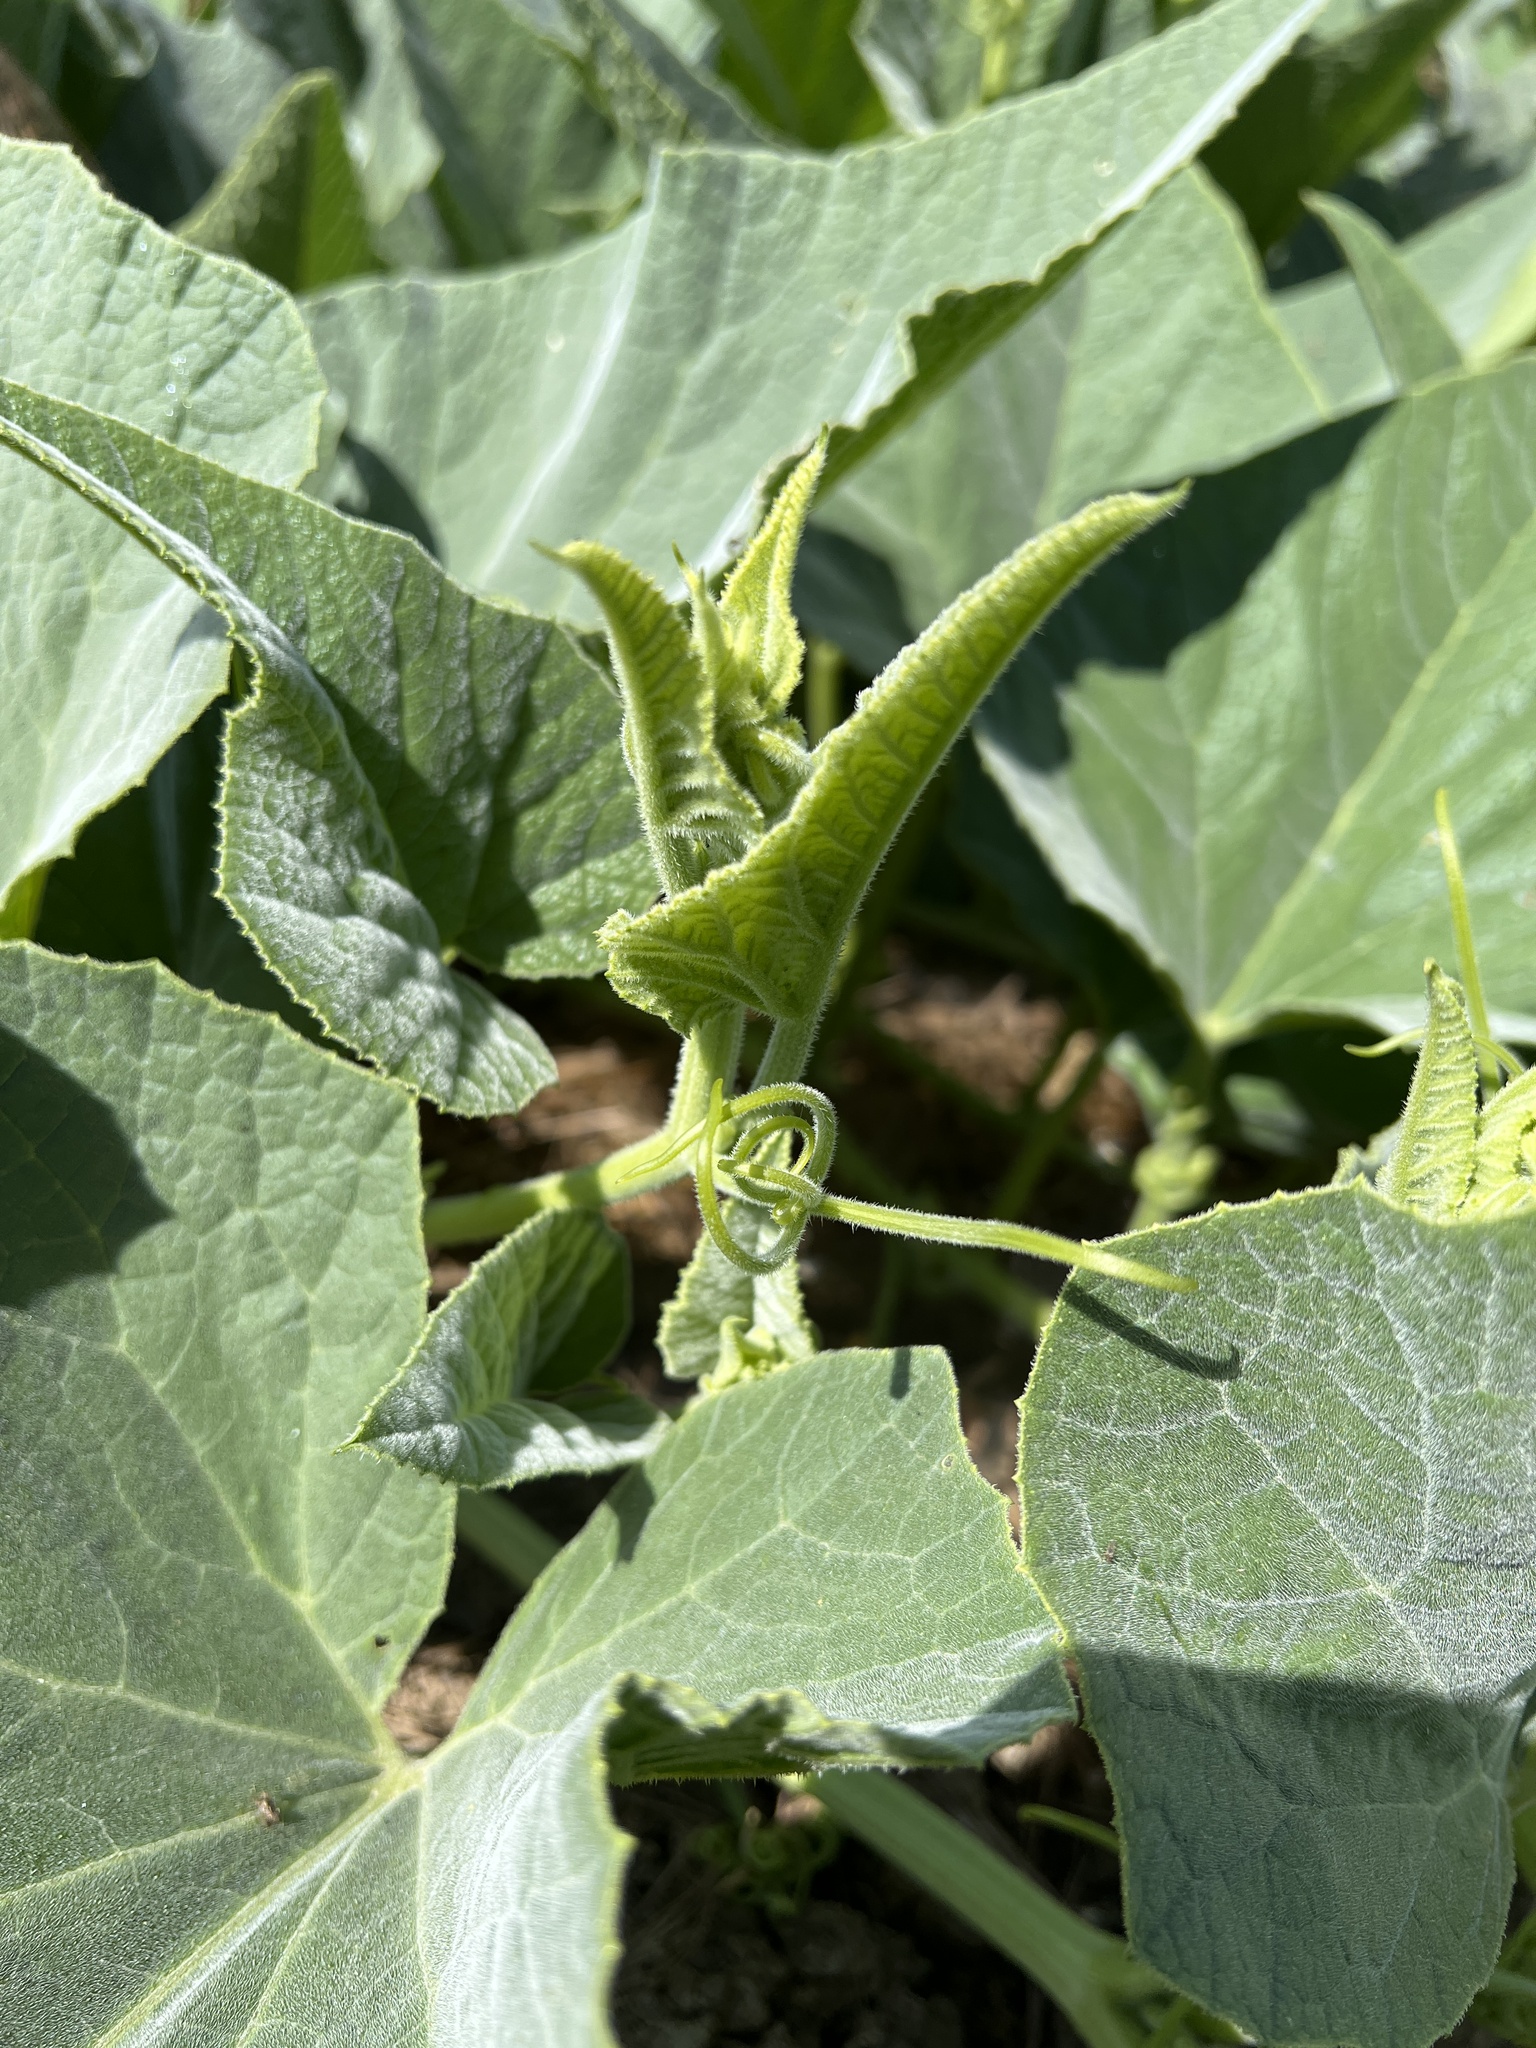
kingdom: Plantae
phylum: Tracheophyta
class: Magnoliopsida
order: Cucurbitales
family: Cucurbitaceae
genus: Cucurbita
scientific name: Cucurbita foetidissima
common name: Buffalo gourd
